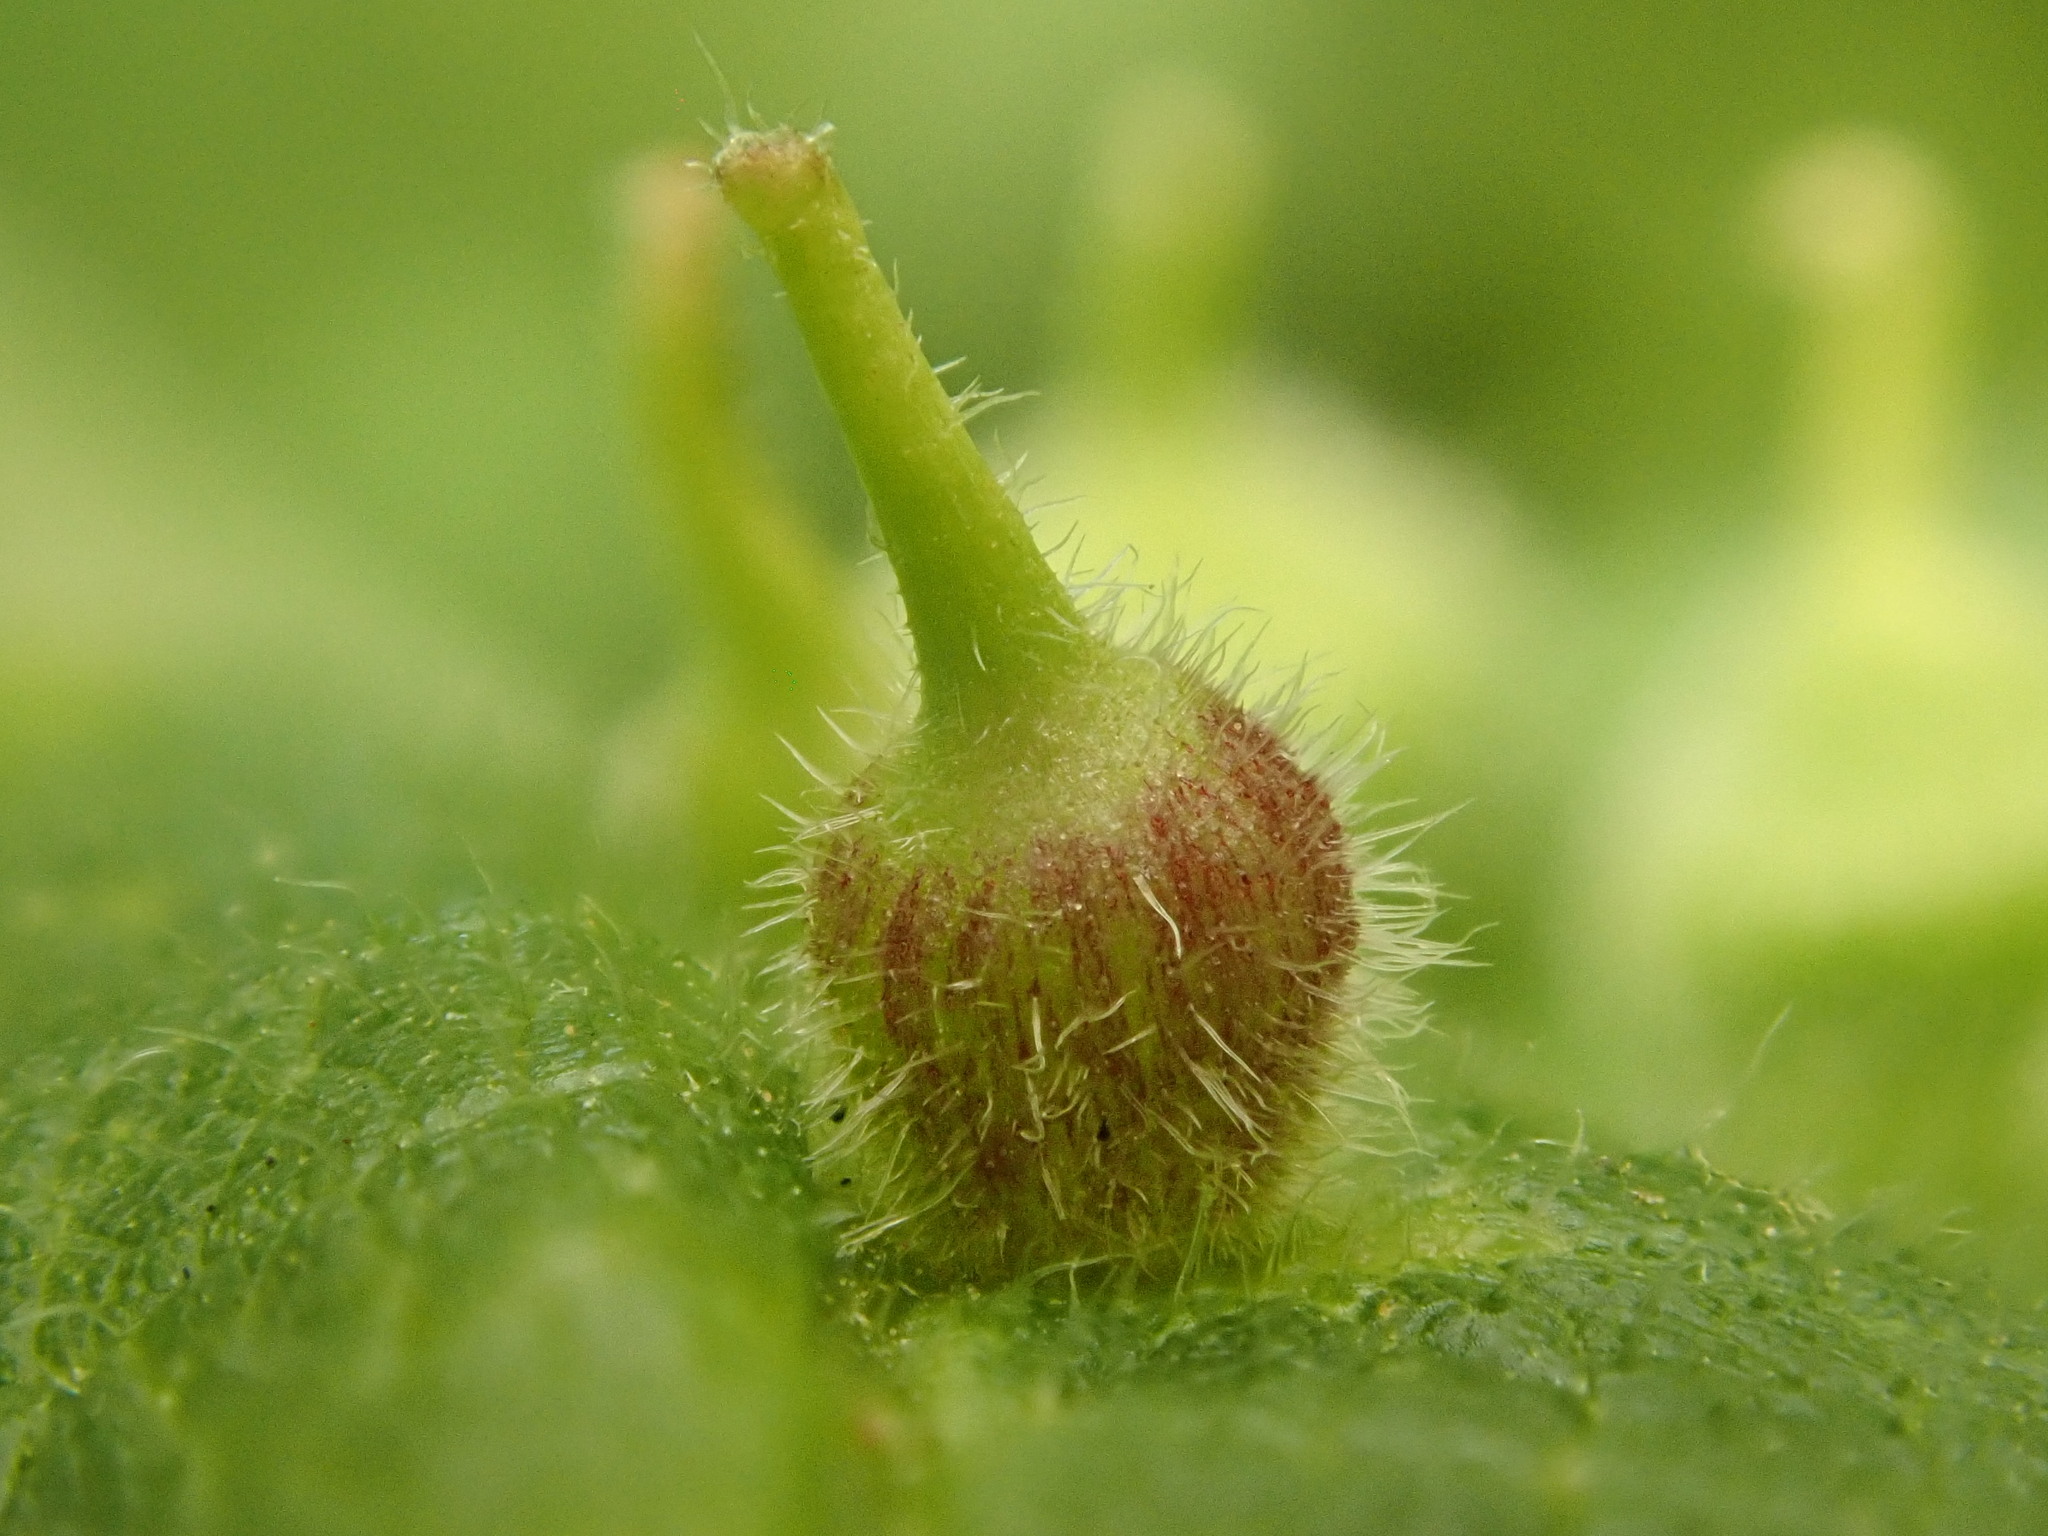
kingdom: Animalia
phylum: Arthropoda
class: Insecta
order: Diptera
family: Cecidomyiidae
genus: Celticecis
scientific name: Celticecis ovata
